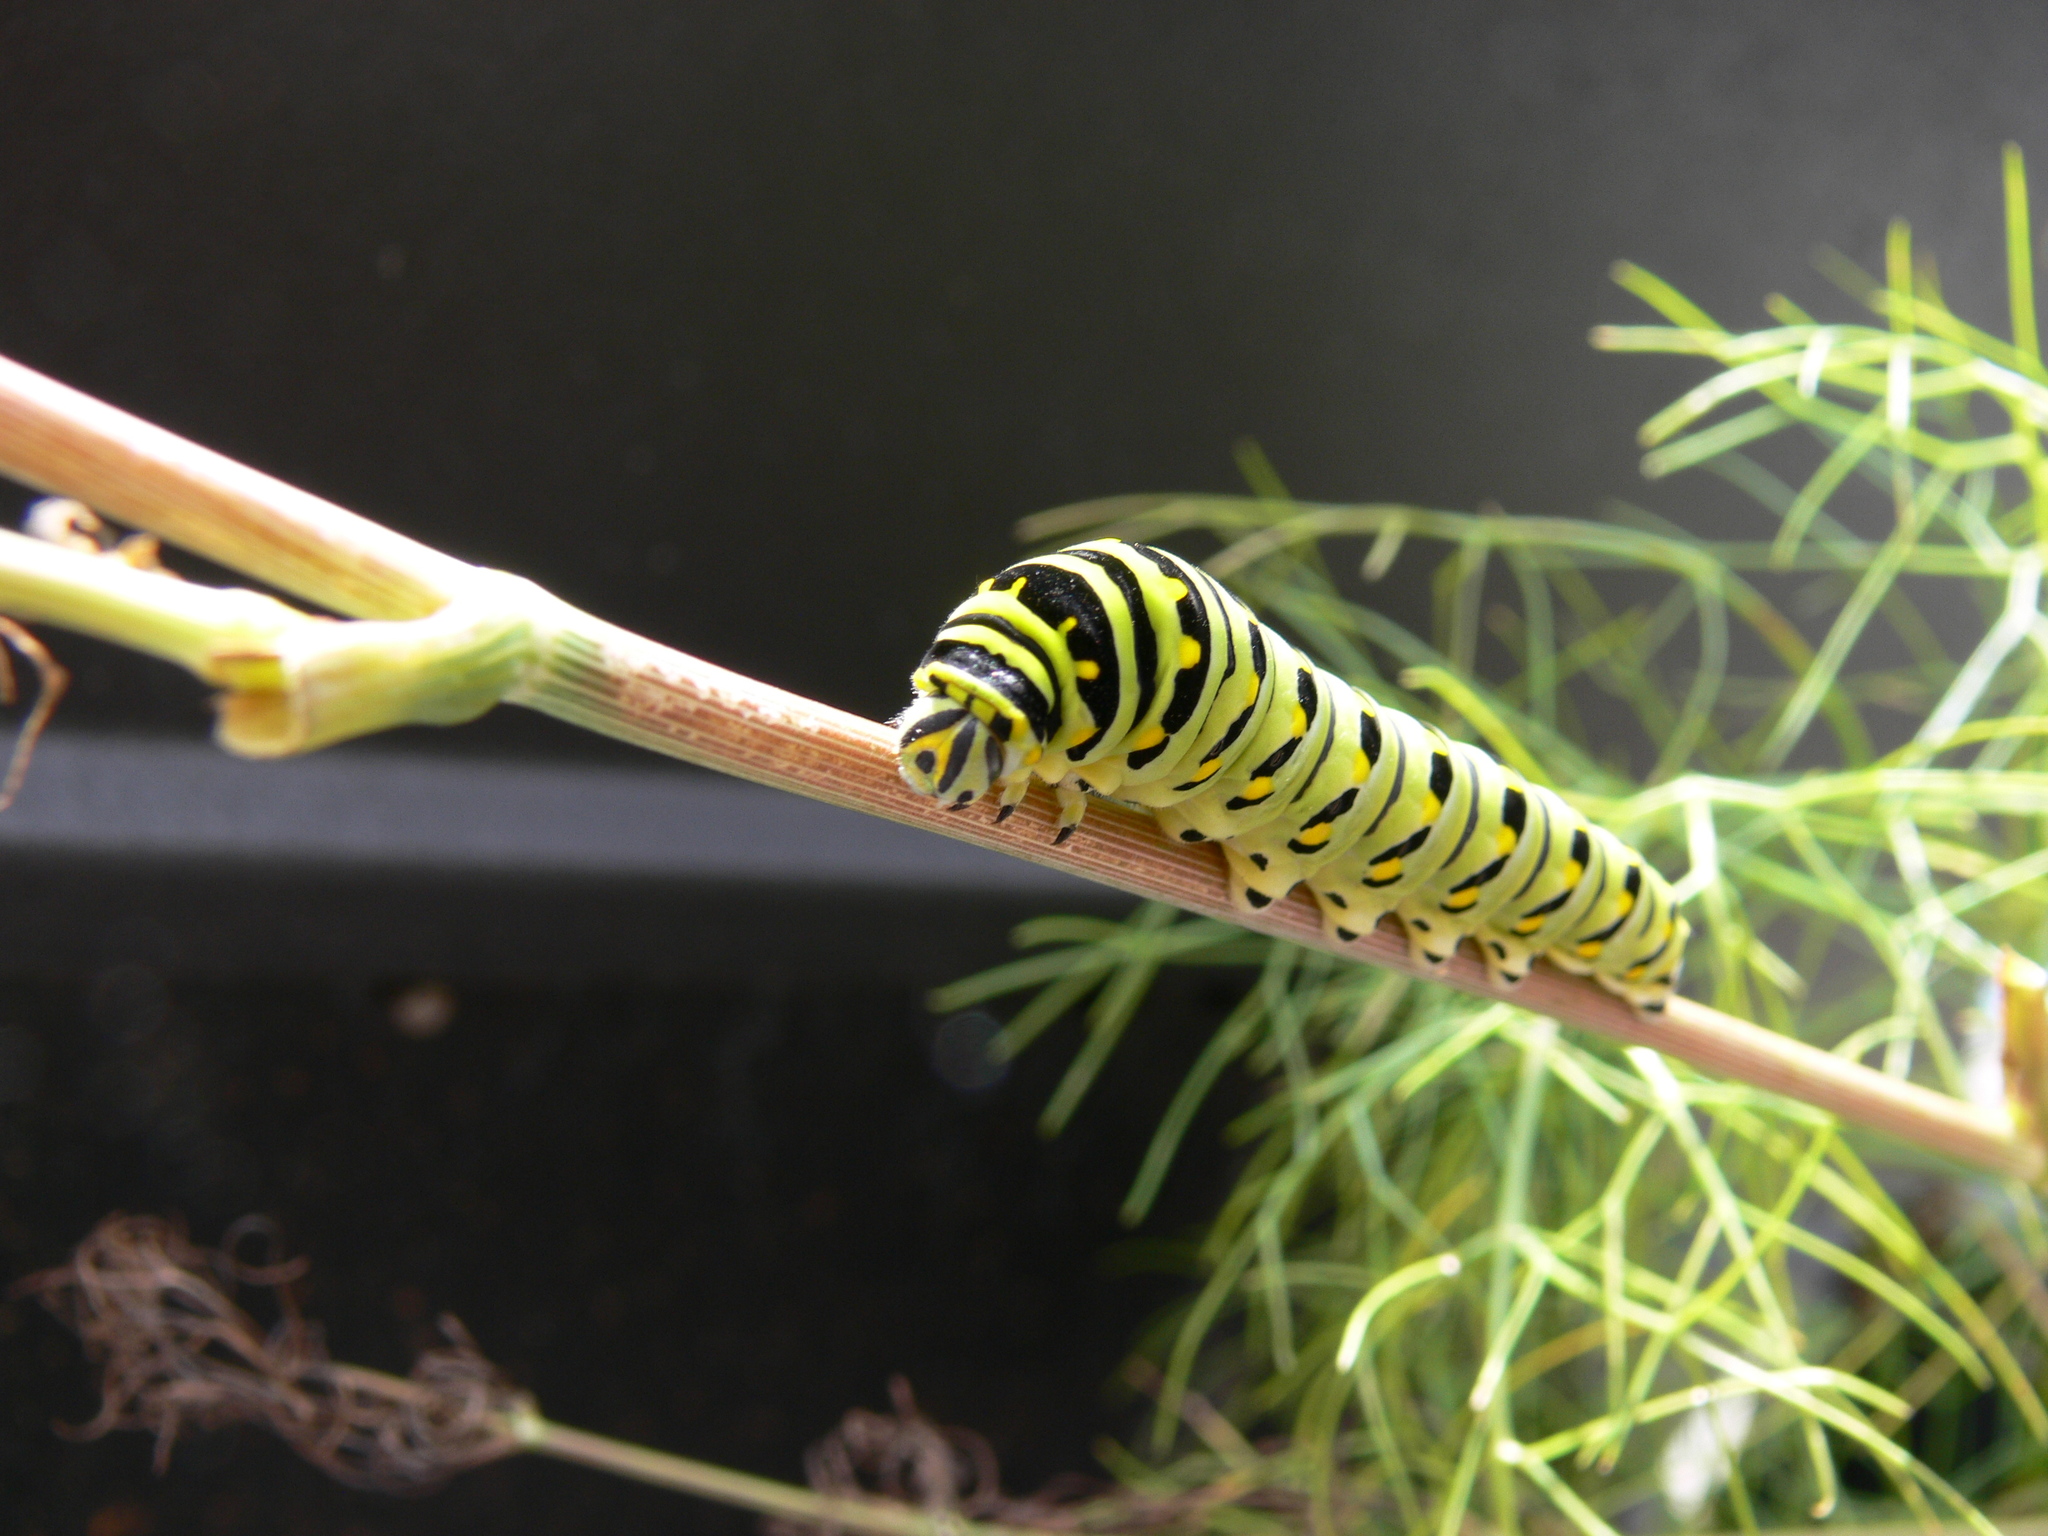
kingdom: Animalia
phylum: Arthropoda
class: Insecta
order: Lepidoptera
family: Papilionidae
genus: Papilio
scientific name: Papilio polyxenes
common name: Black swallowtail
